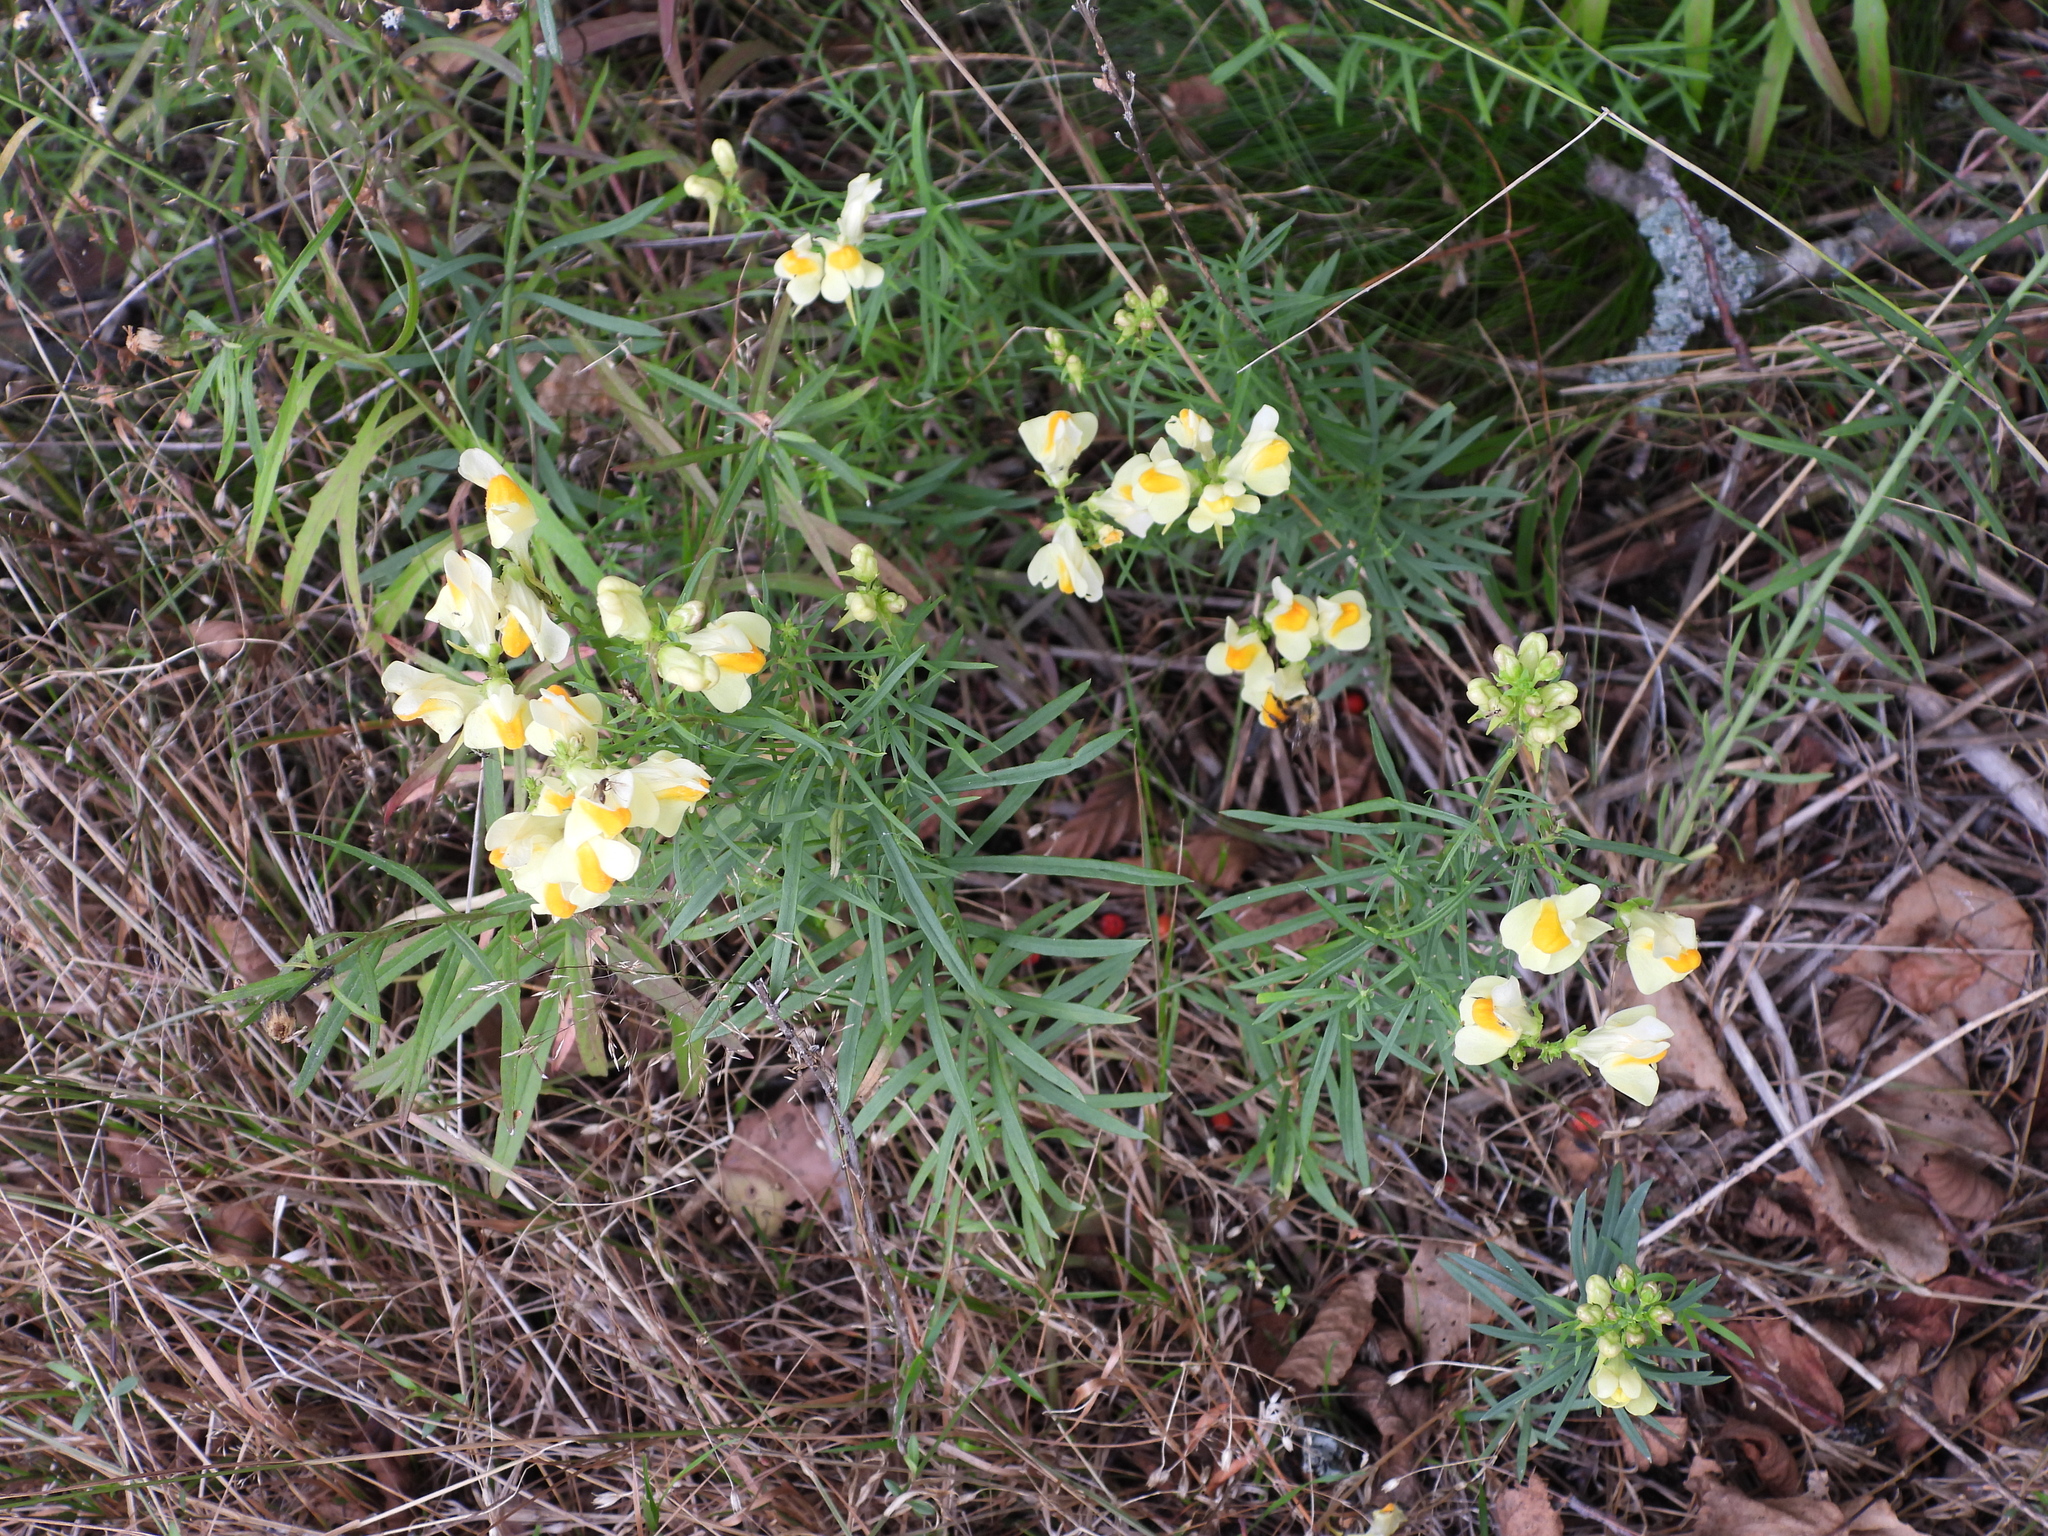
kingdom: Plantae
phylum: Tracheophyta
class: Magnoliopsida
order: Lamiales
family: Plantaginaceae
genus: Linaria
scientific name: Linaria vulgaris
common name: Butter and eggs
